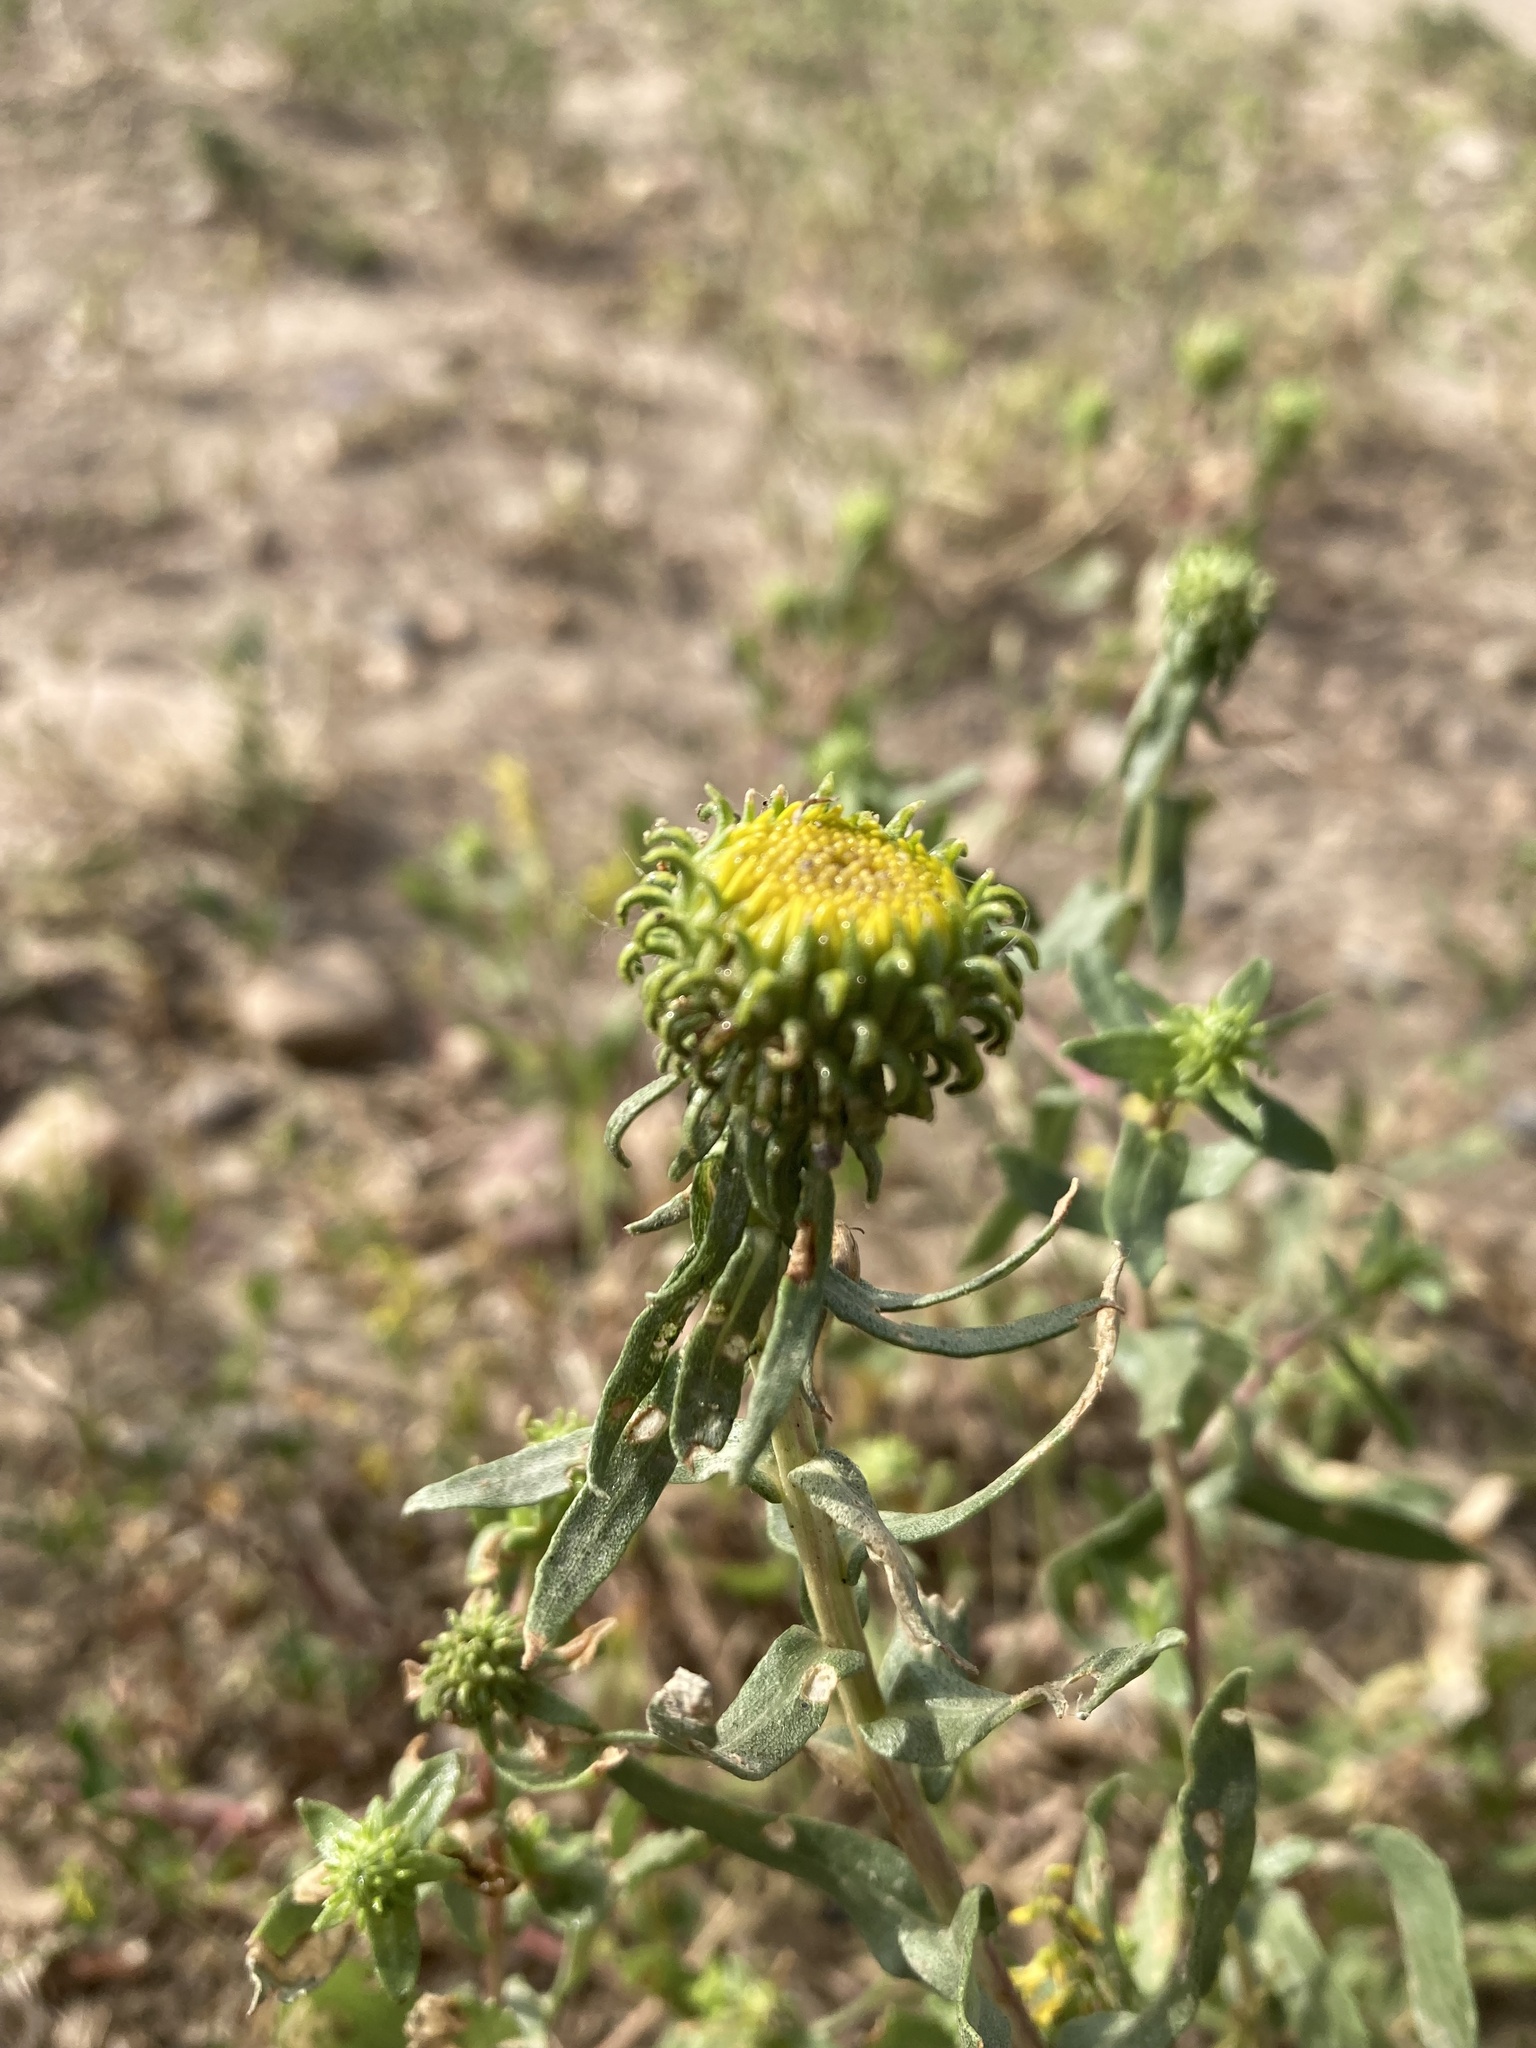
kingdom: Plantae
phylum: Tracheophyta
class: Magnoliopsida
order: Asterales
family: Asteraceae
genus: Grindelia
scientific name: Grindelia squarrosa
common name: Curly-cup gumweed
